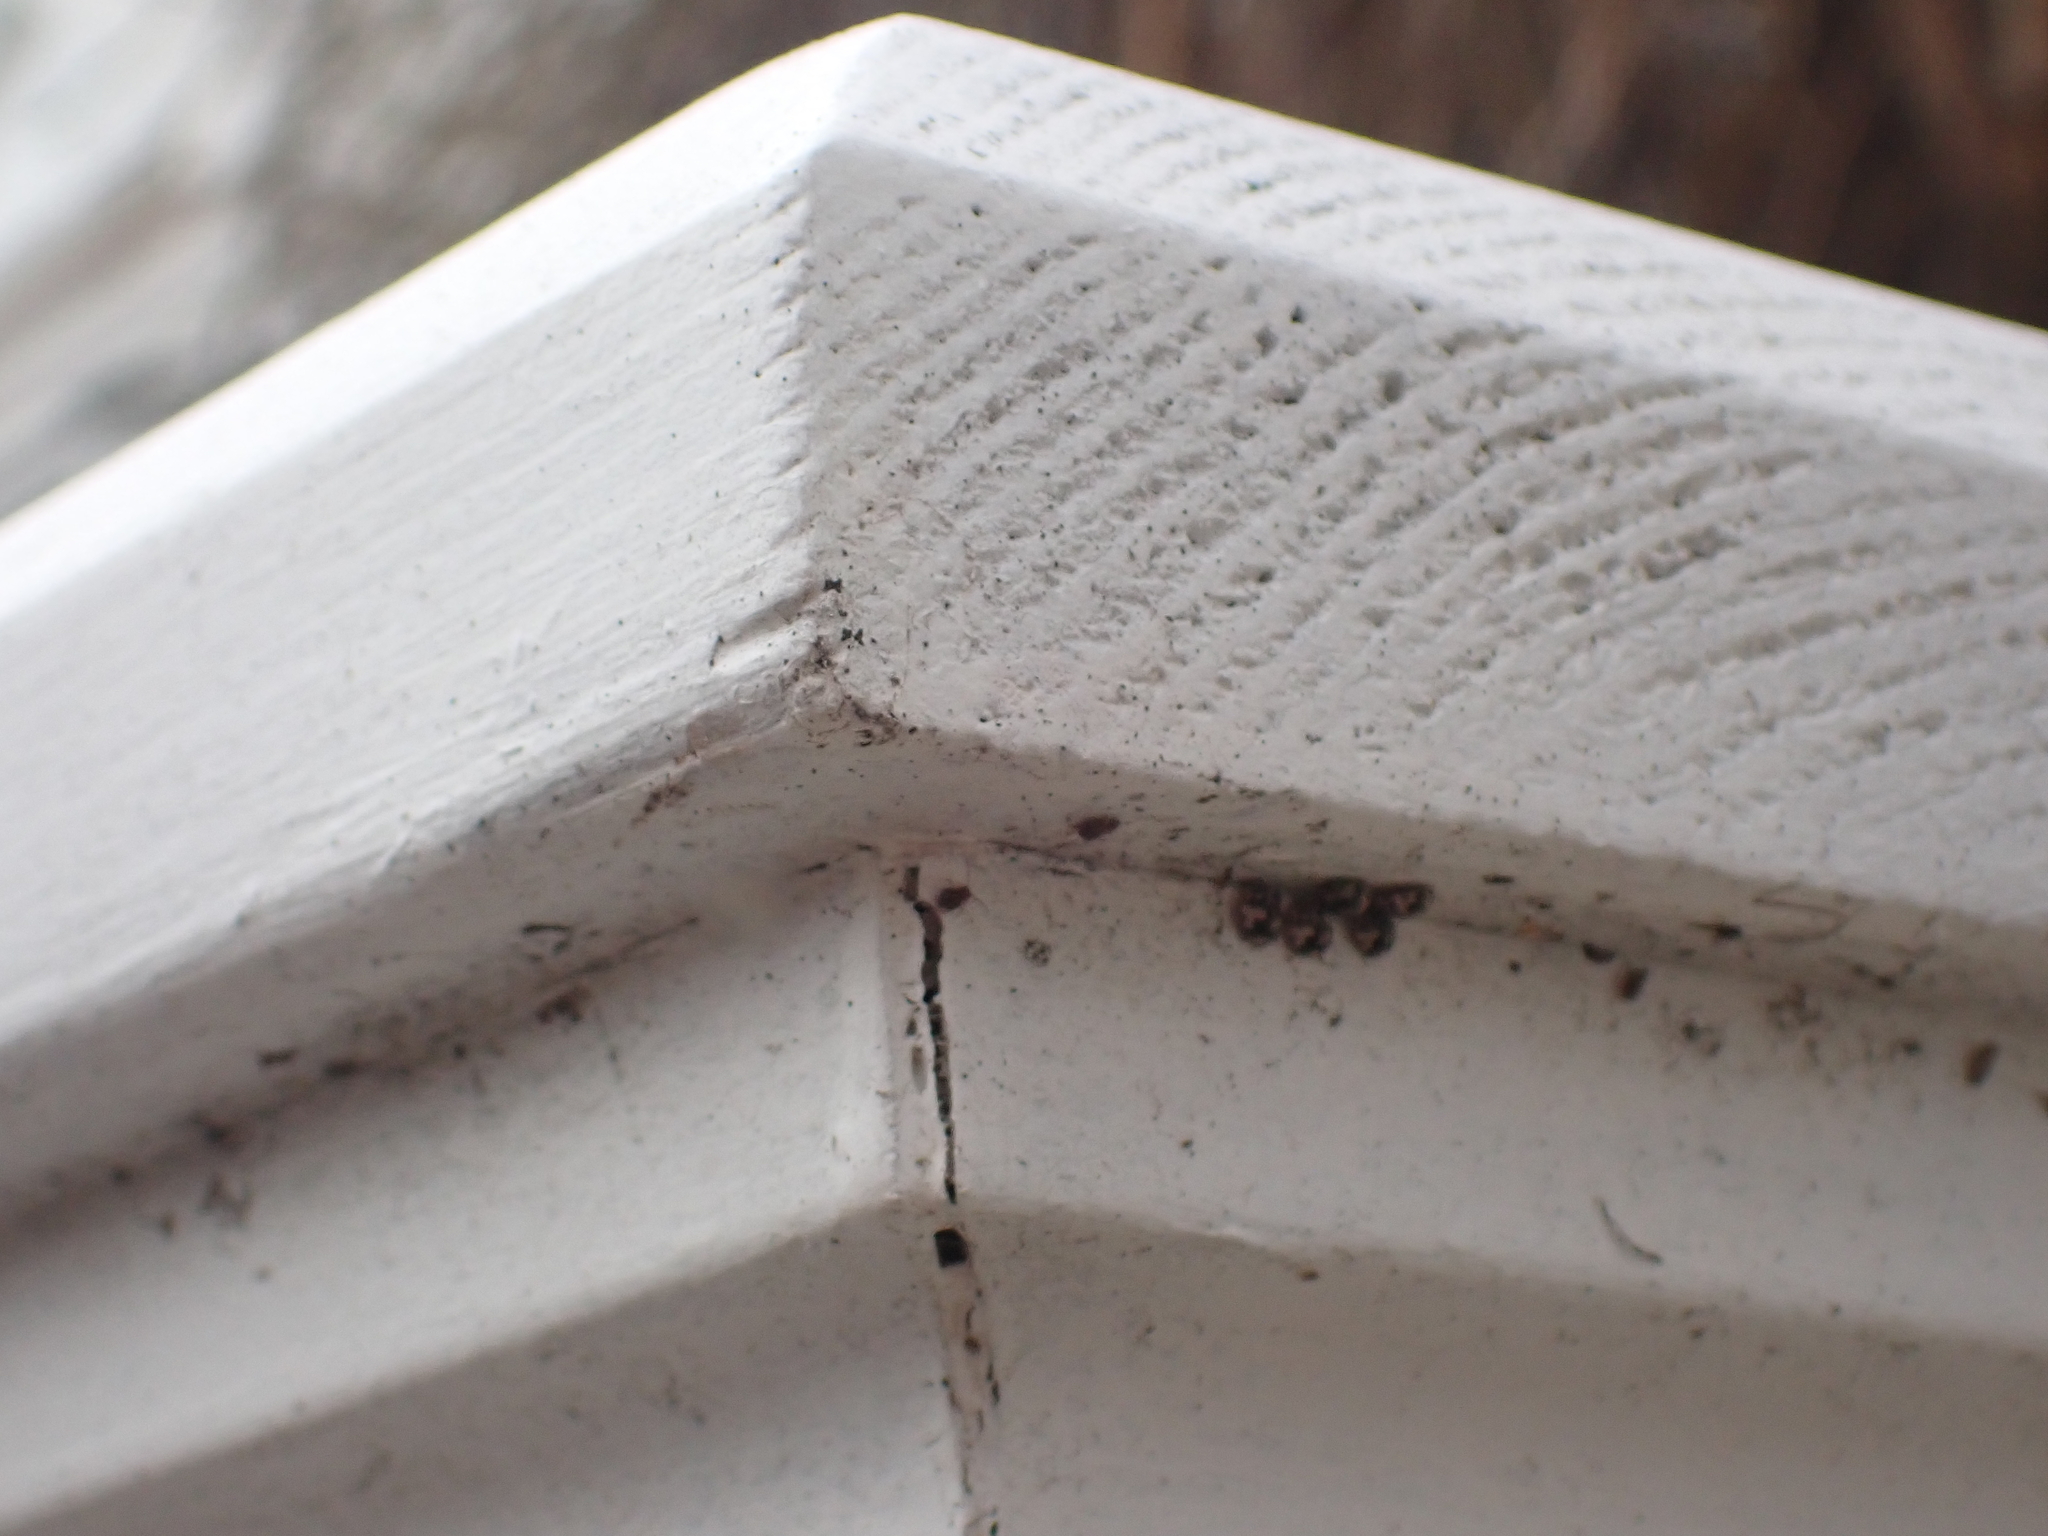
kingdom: Animalia
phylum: Arthropoda
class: Insecta
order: Coleoptera
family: Coccinellidae
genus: Psyllobora
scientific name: Psyllobora borealis
